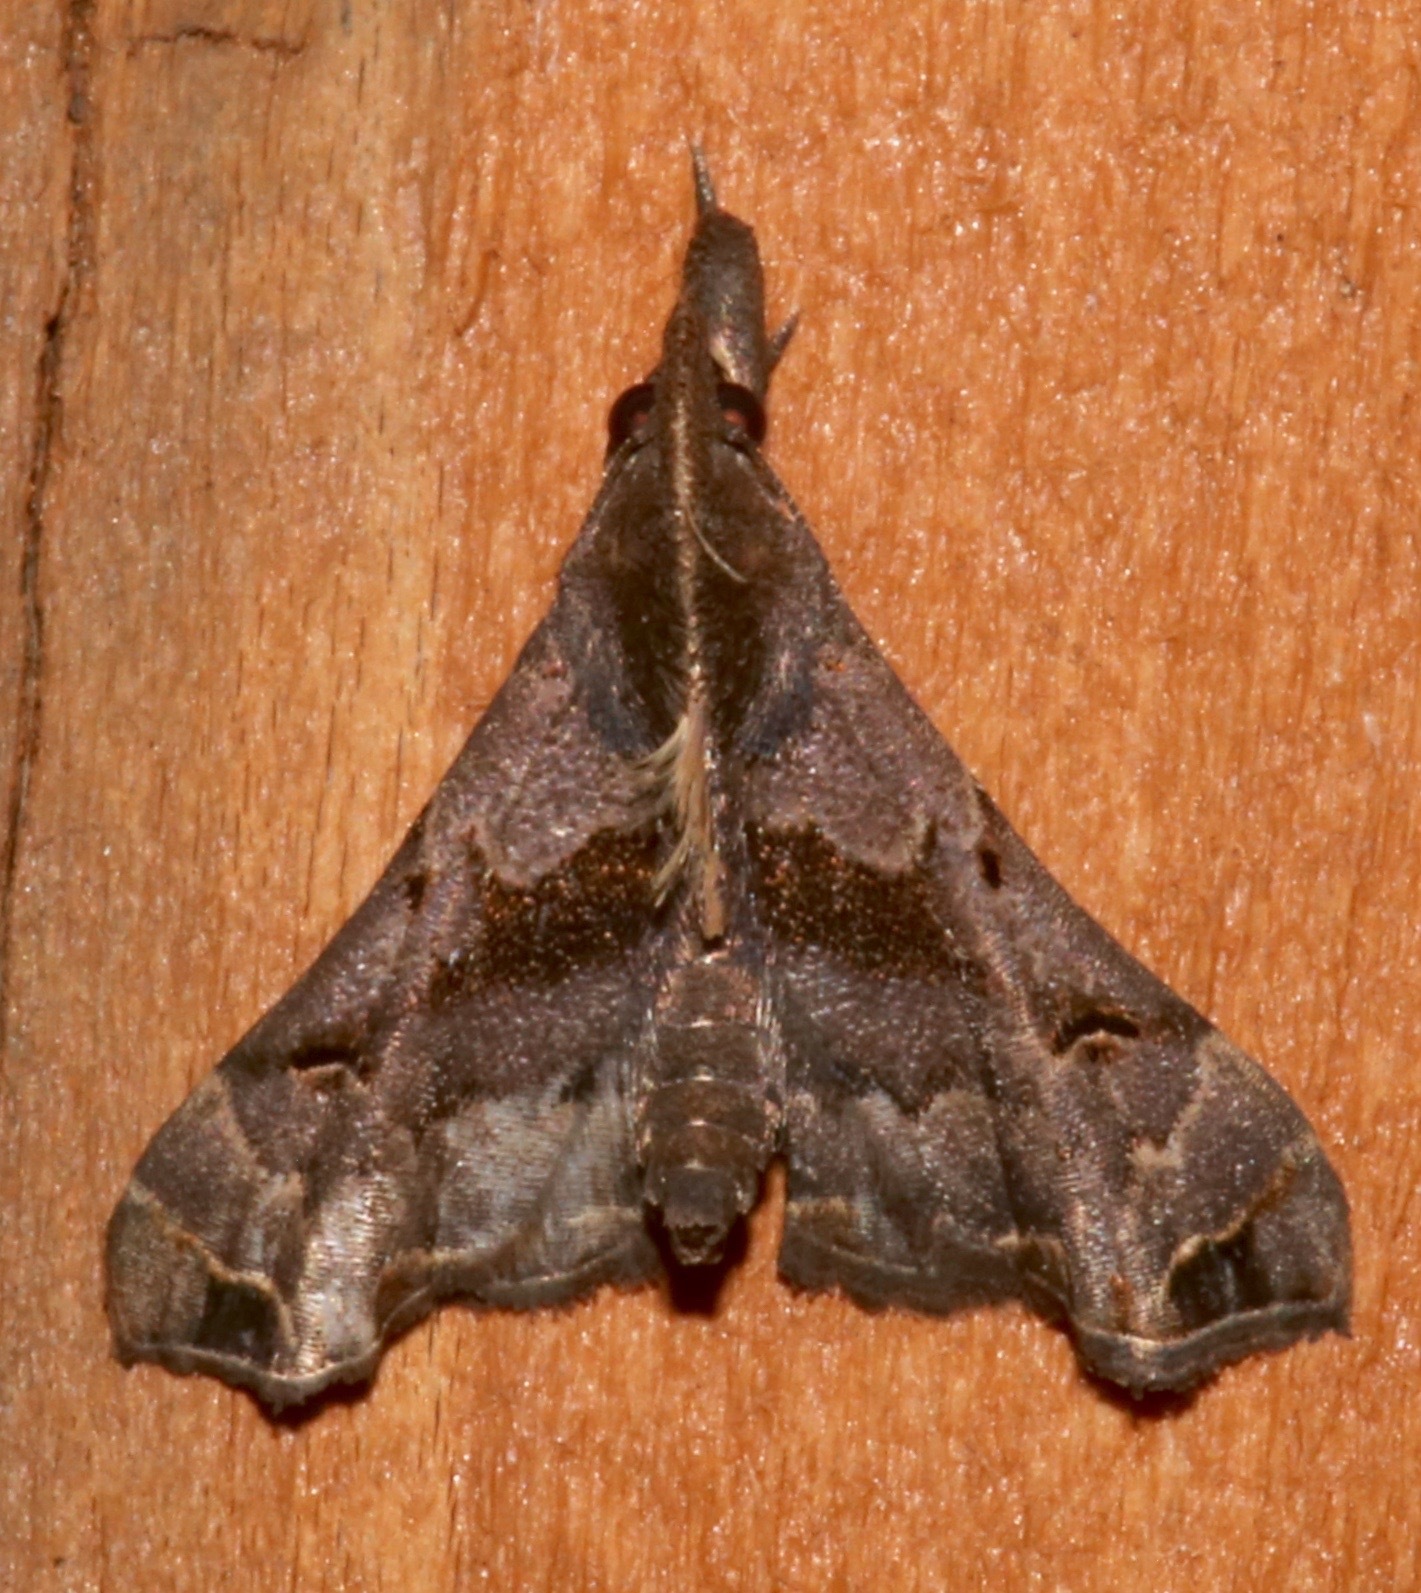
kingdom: Animalia
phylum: Arthropoda
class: Insecta
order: Lepidoptera
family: Erebidae
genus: Palthis
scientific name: Palthis asopialis
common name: Faint-spotted palthis moth
